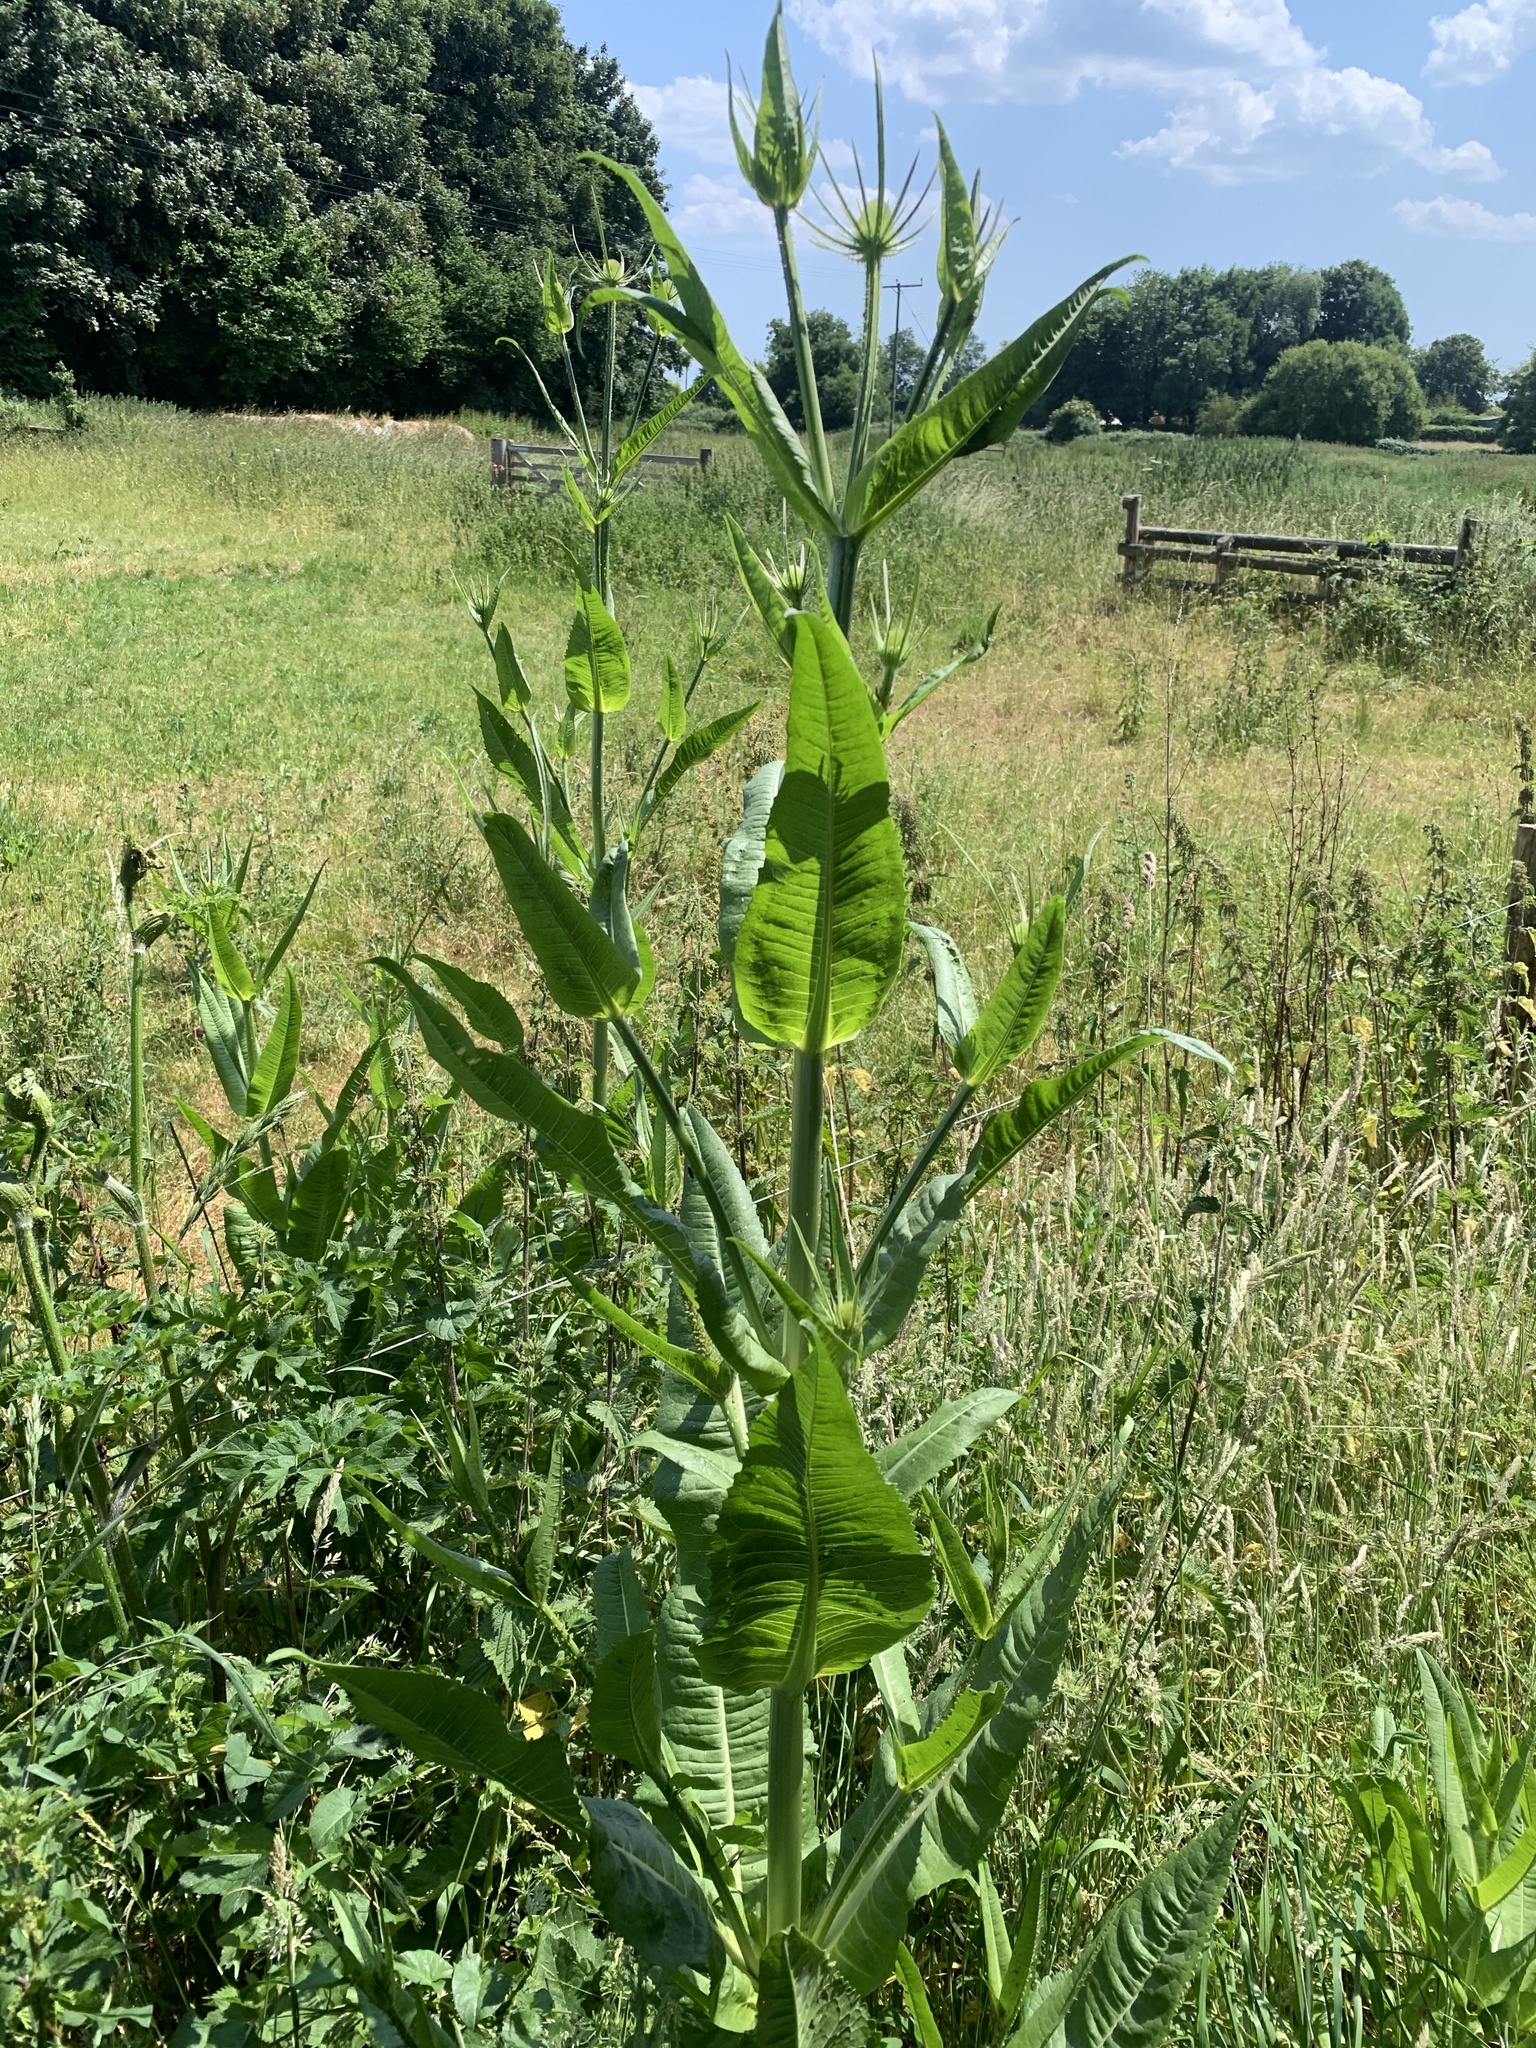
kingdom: Plantae
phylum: Tracheophyta
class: Magnoliopsida
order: Dipsacales
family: Caprifoliaceae
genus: Dipsacus
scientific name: Dipsacus fullonum
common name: Teasel
